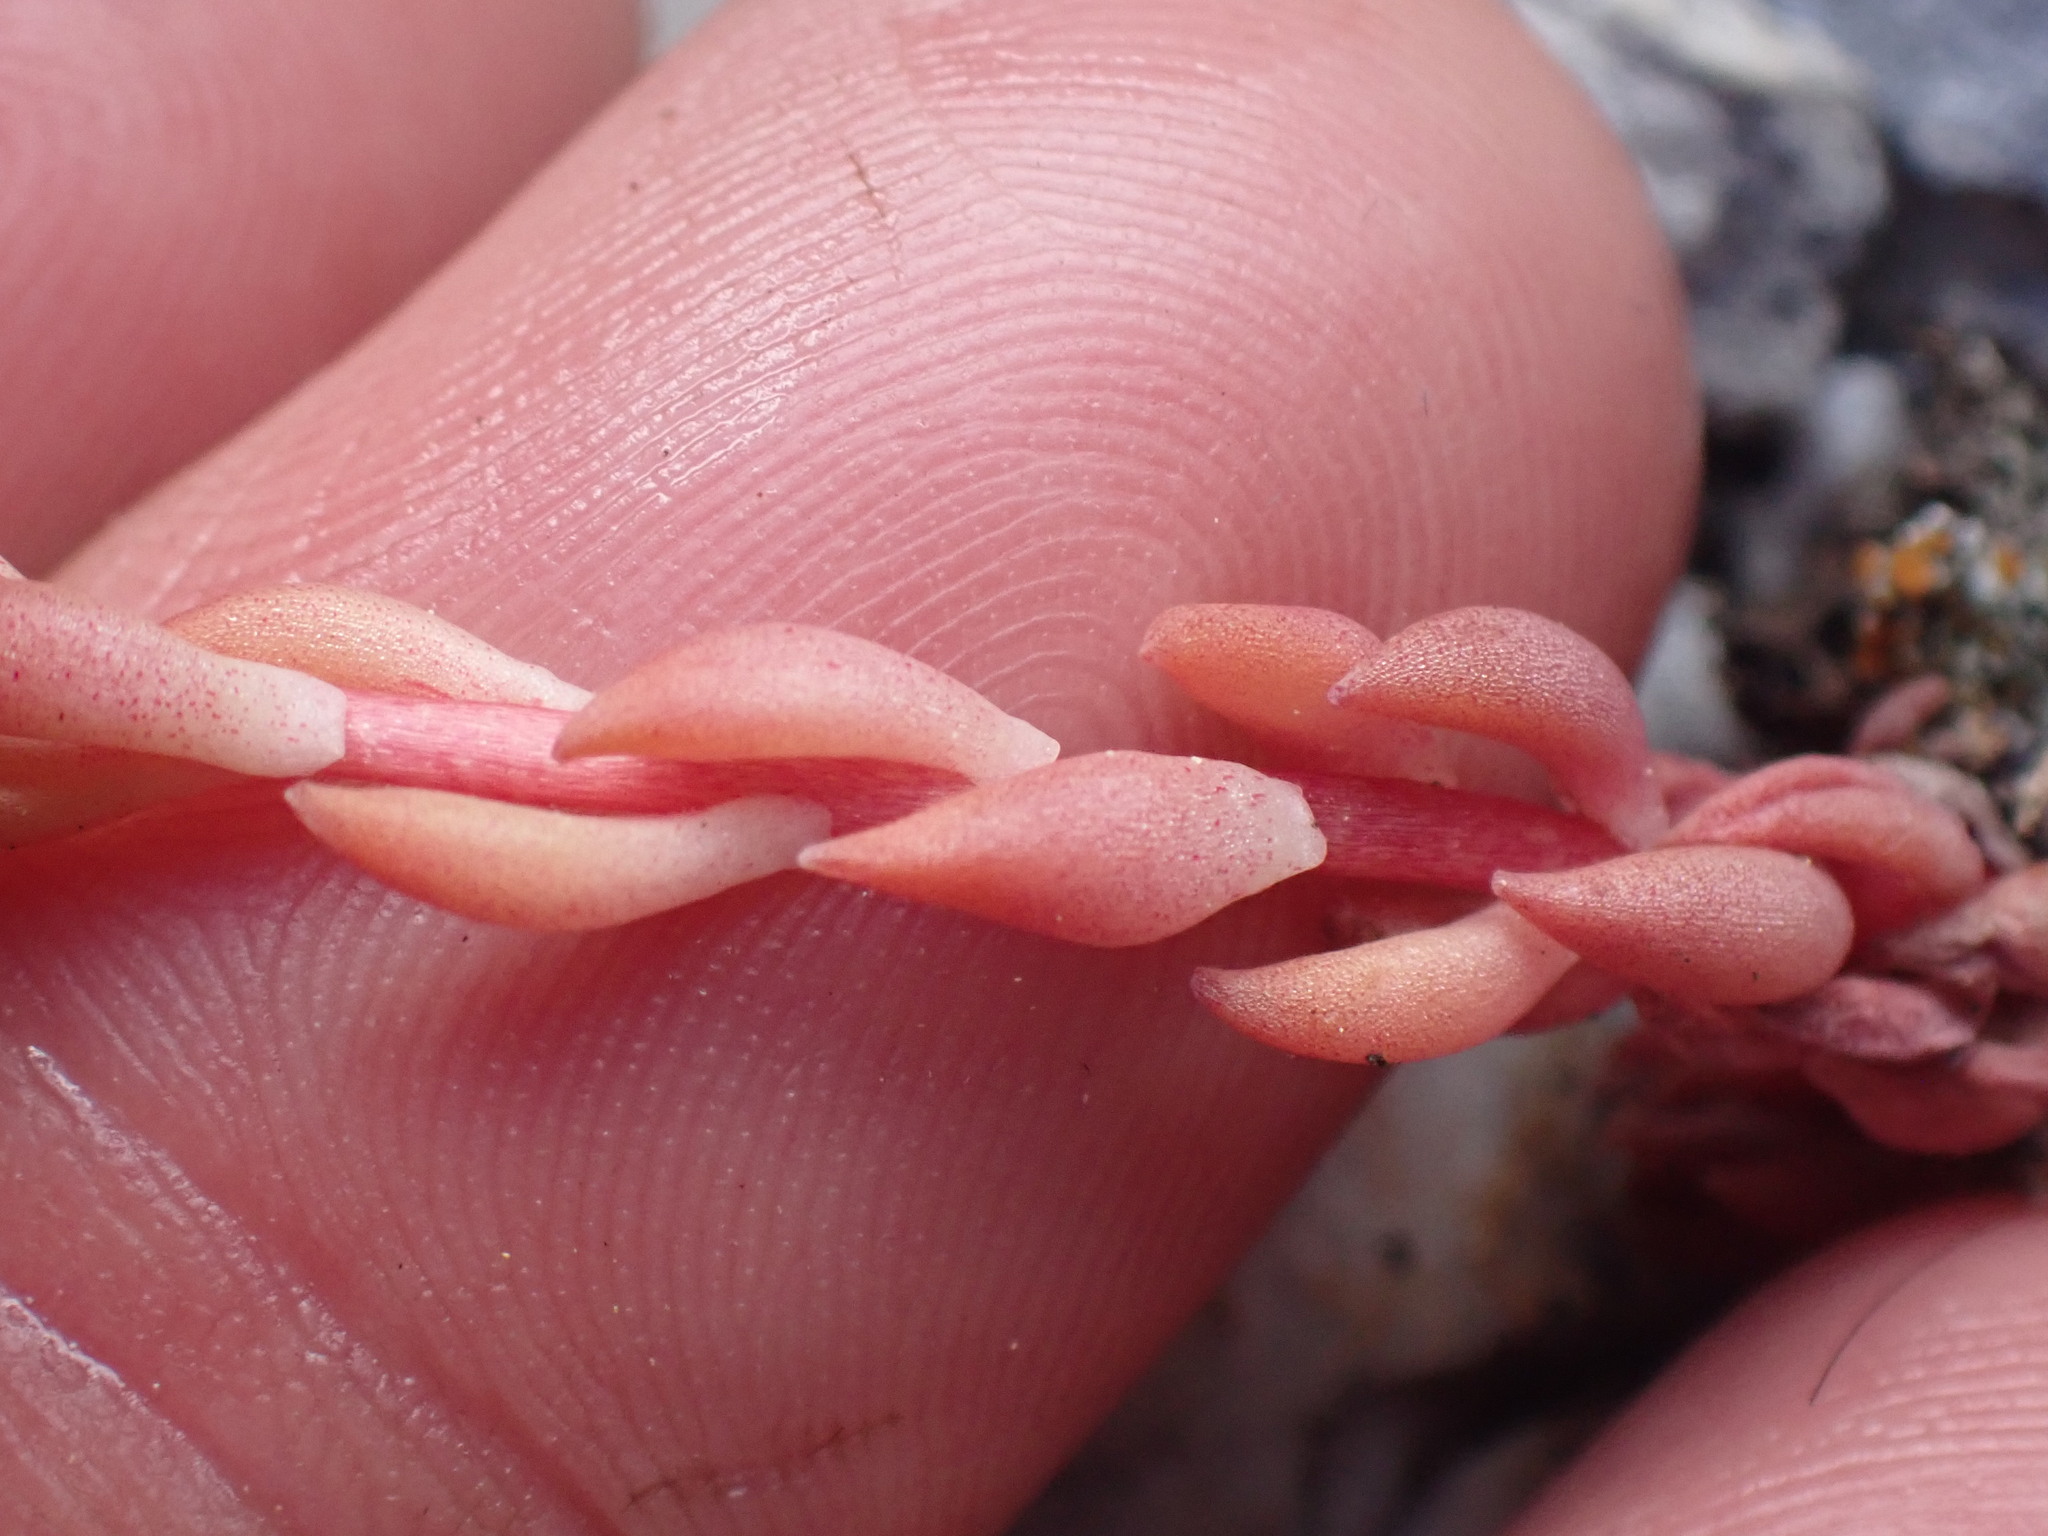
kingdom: Plantae
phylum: Tracheophyta
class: Magnoliopsida
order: Saxifragales
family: Crassulaceae
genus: Sedum
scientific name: Sedum lanceolatum
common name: Common stonecrop
